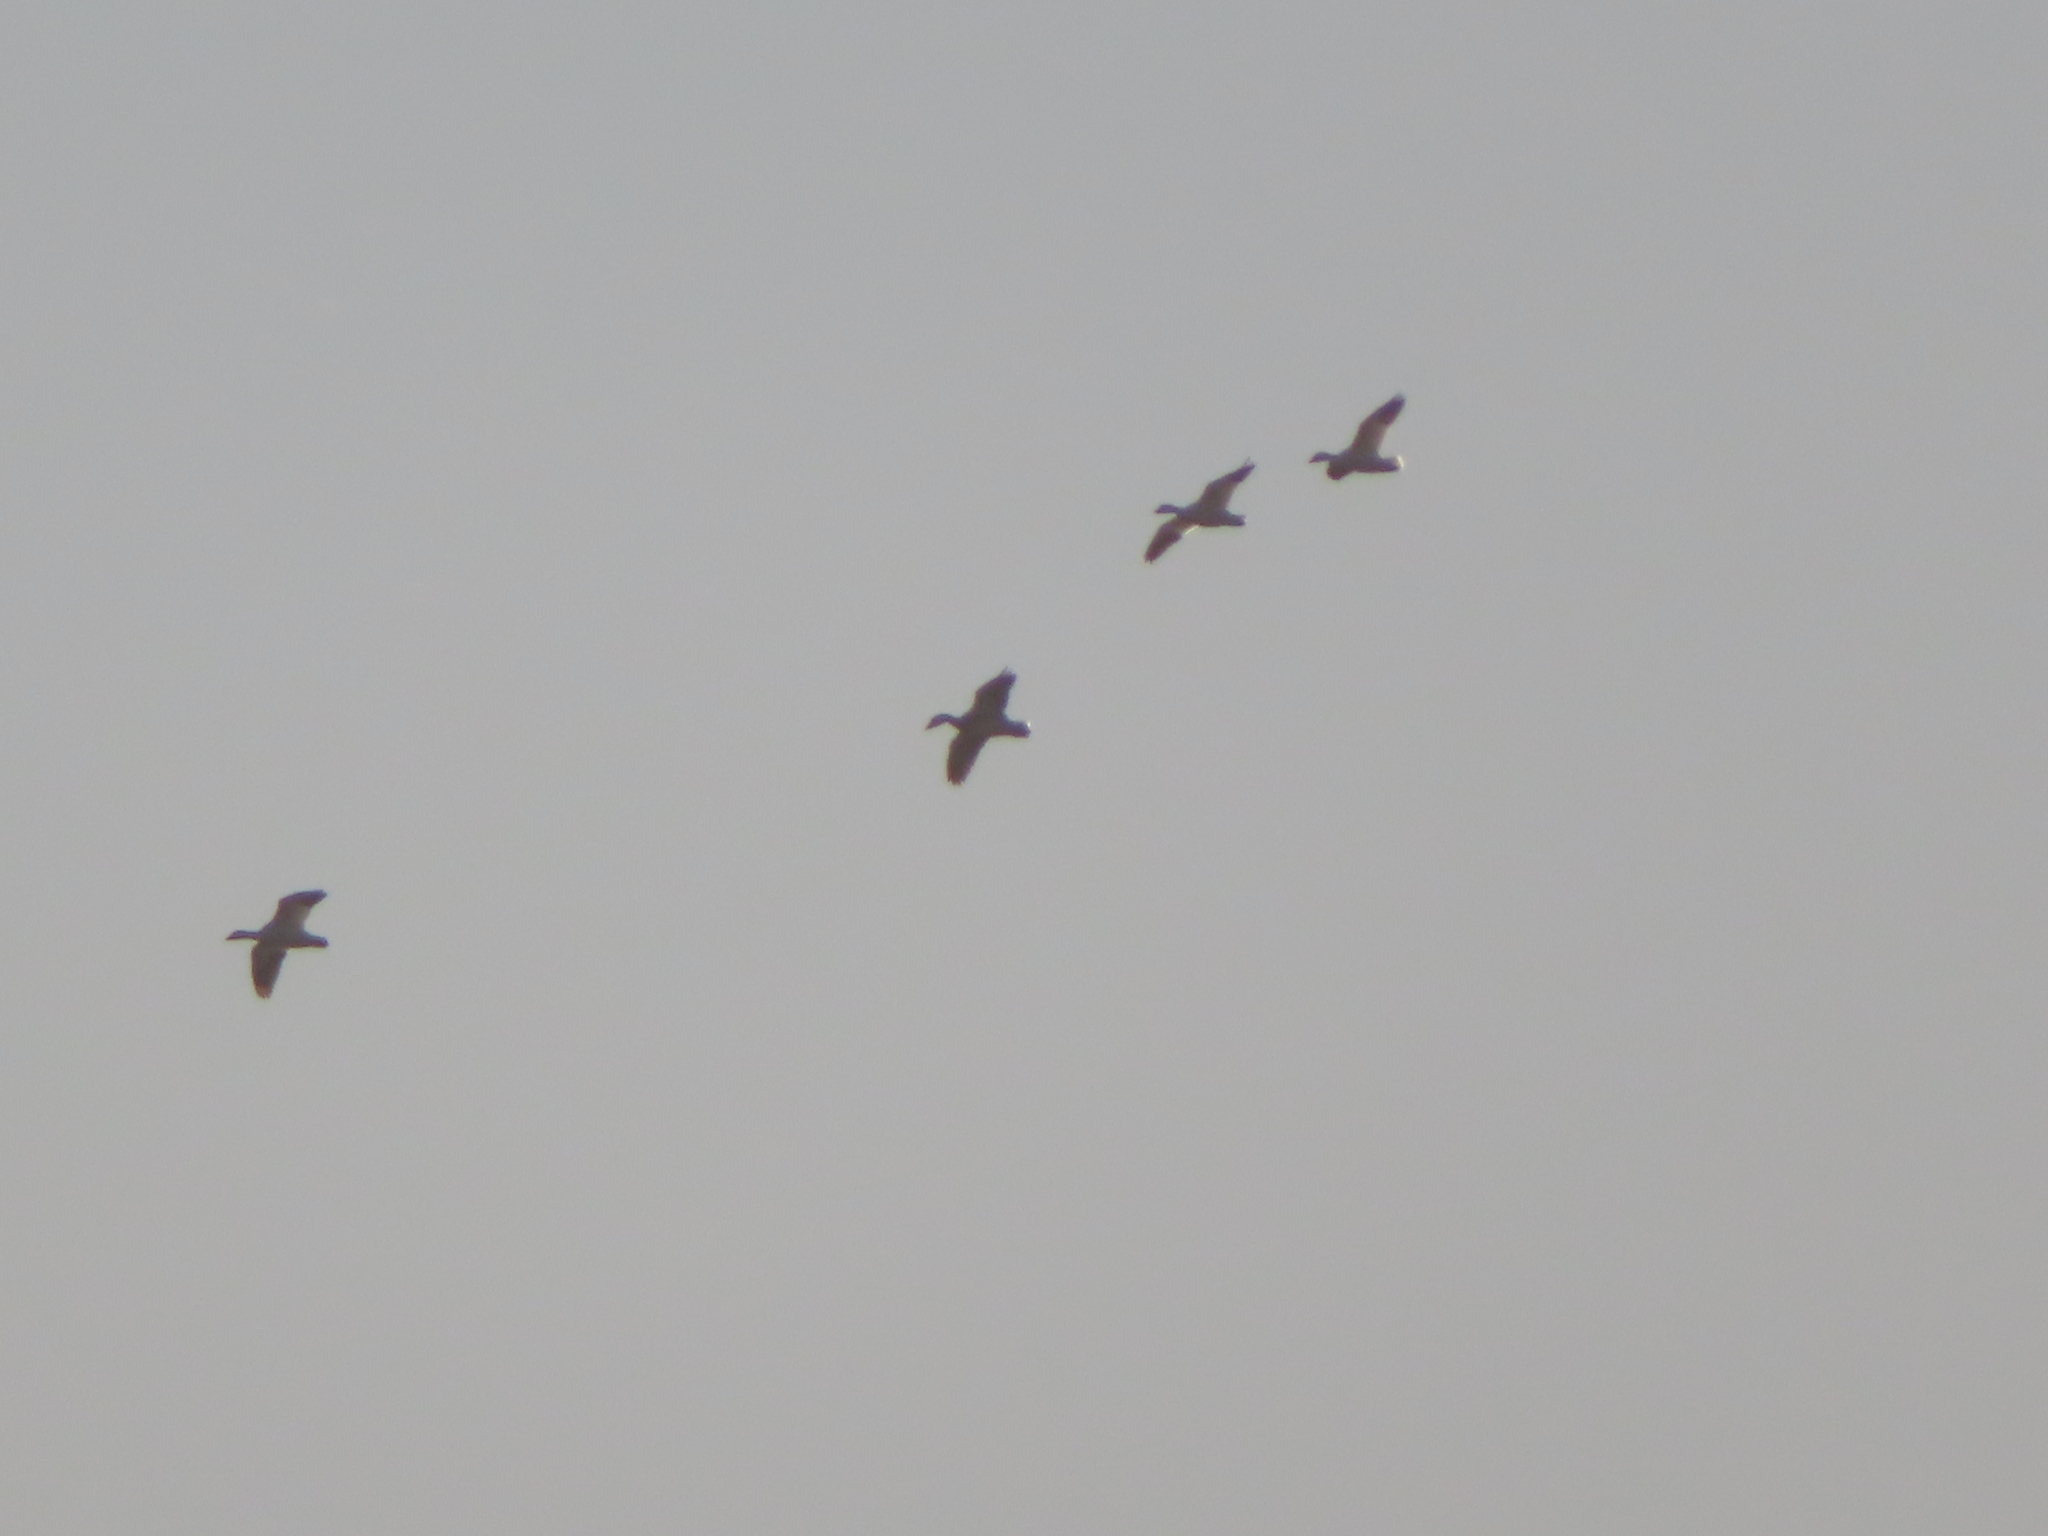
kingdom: Animalia
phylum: Chordata
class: Aves
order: Anseriformes
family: Anatidae
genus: Anser
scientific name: Anser caerulescens
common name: Snow goose
